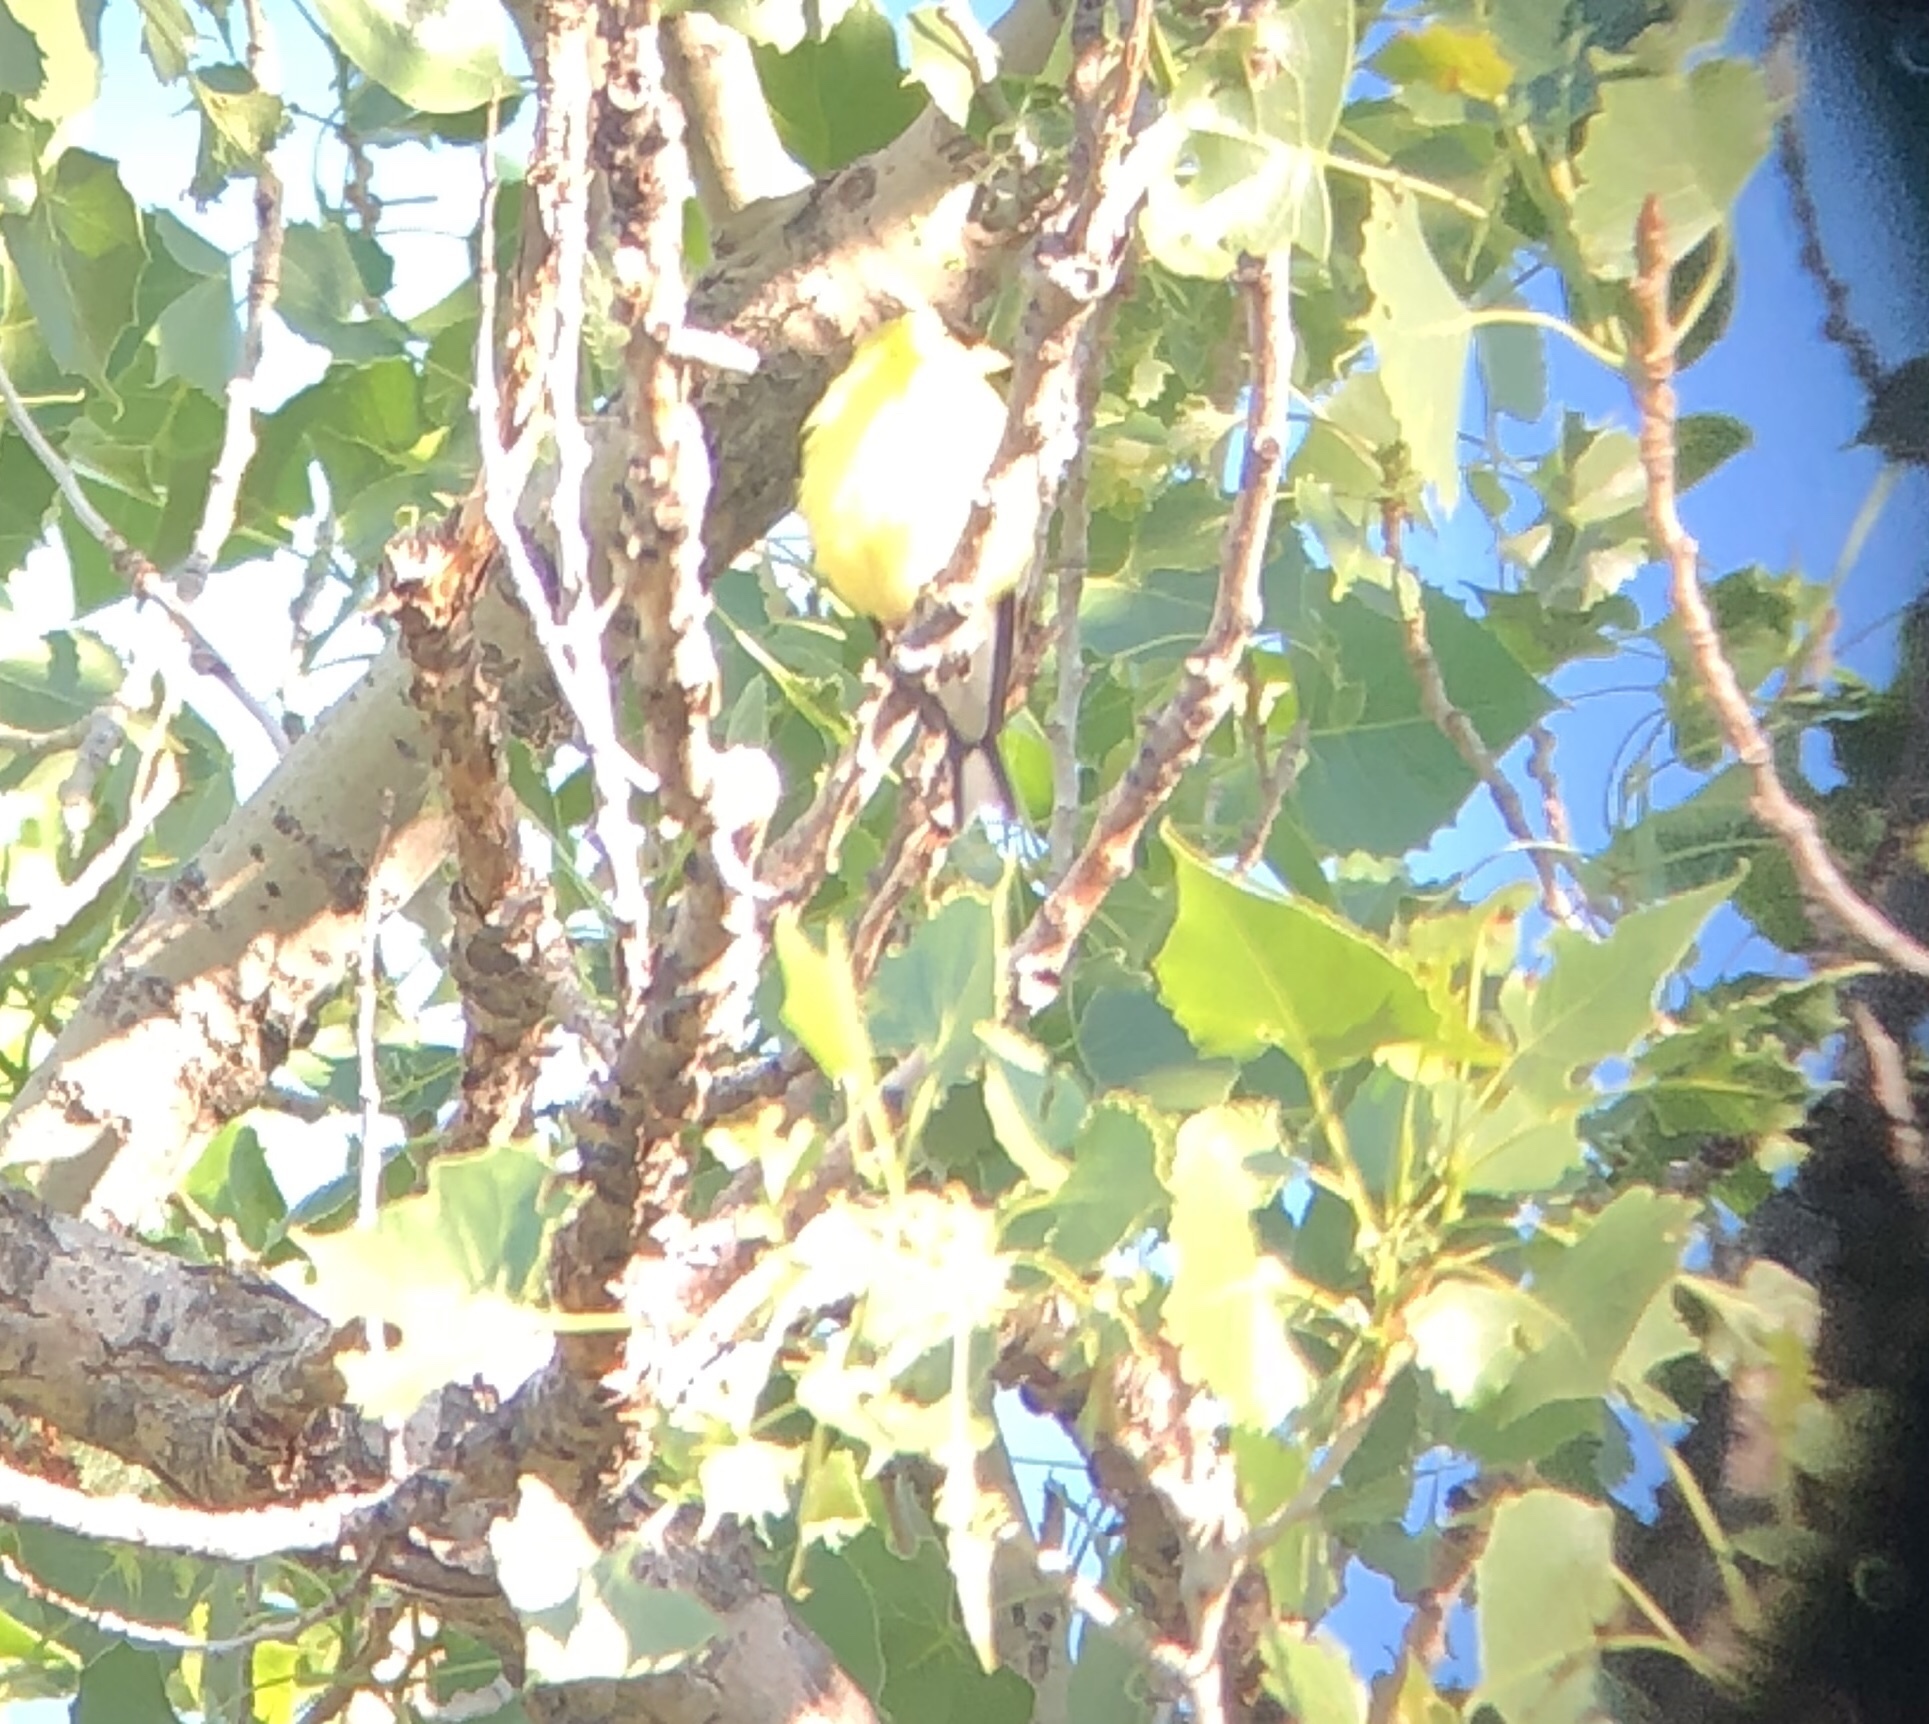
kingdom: Animalia
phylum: Chordata
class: Aves
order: Passeriformes
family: Fringillidae
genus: Spinus
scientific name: Spinus tristis
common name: American goldfinch
